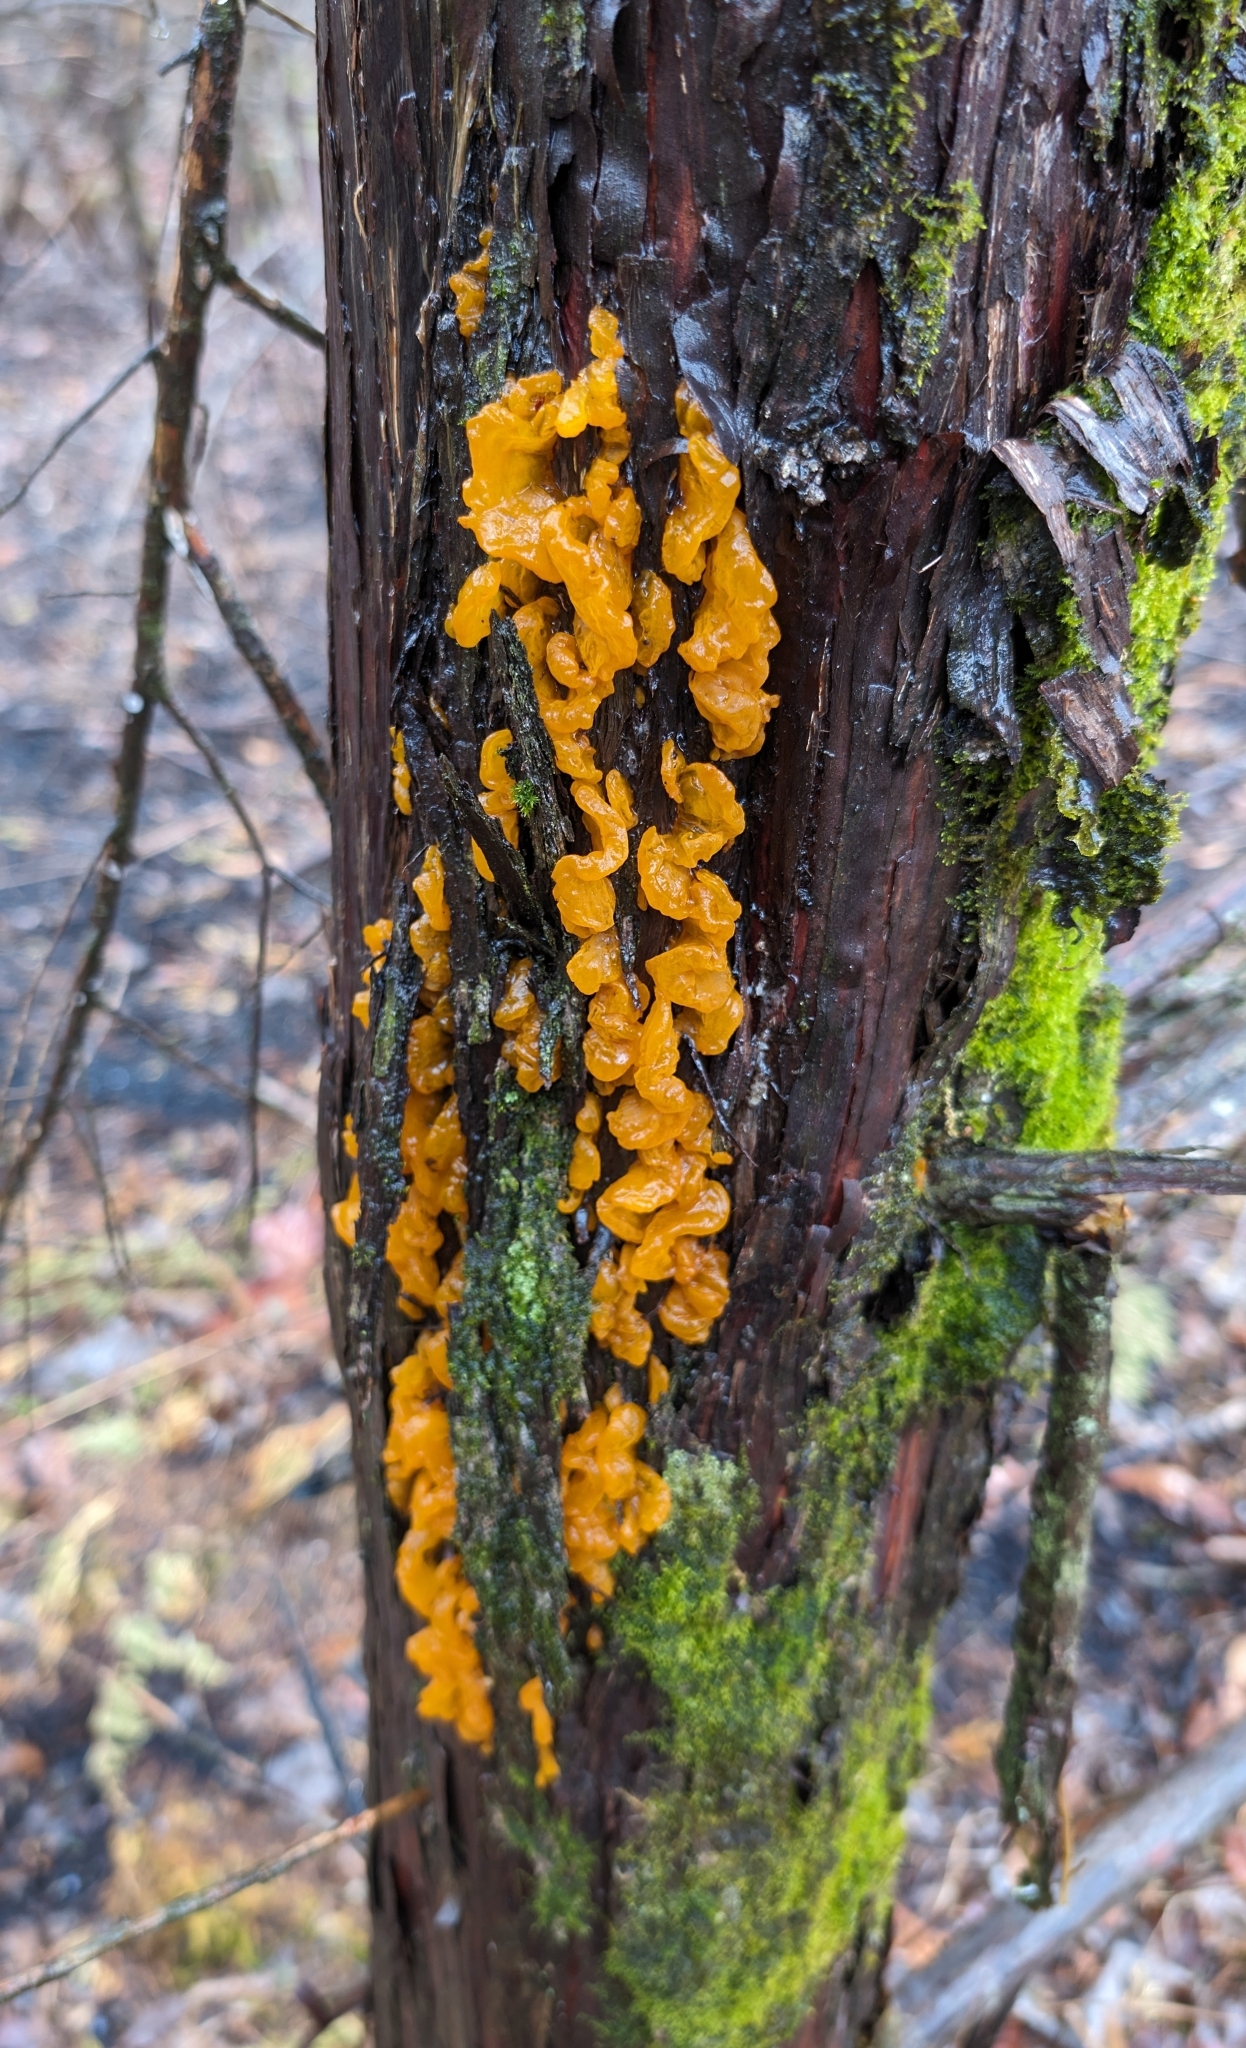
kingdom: Fungi
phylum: Basidiomycota
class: Pucciniomycetes
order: Pucciniales
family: Gymnosporangiaceae
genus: Gymnosporangium
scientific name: Gymnosporangium clavipes
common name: Quince rust
